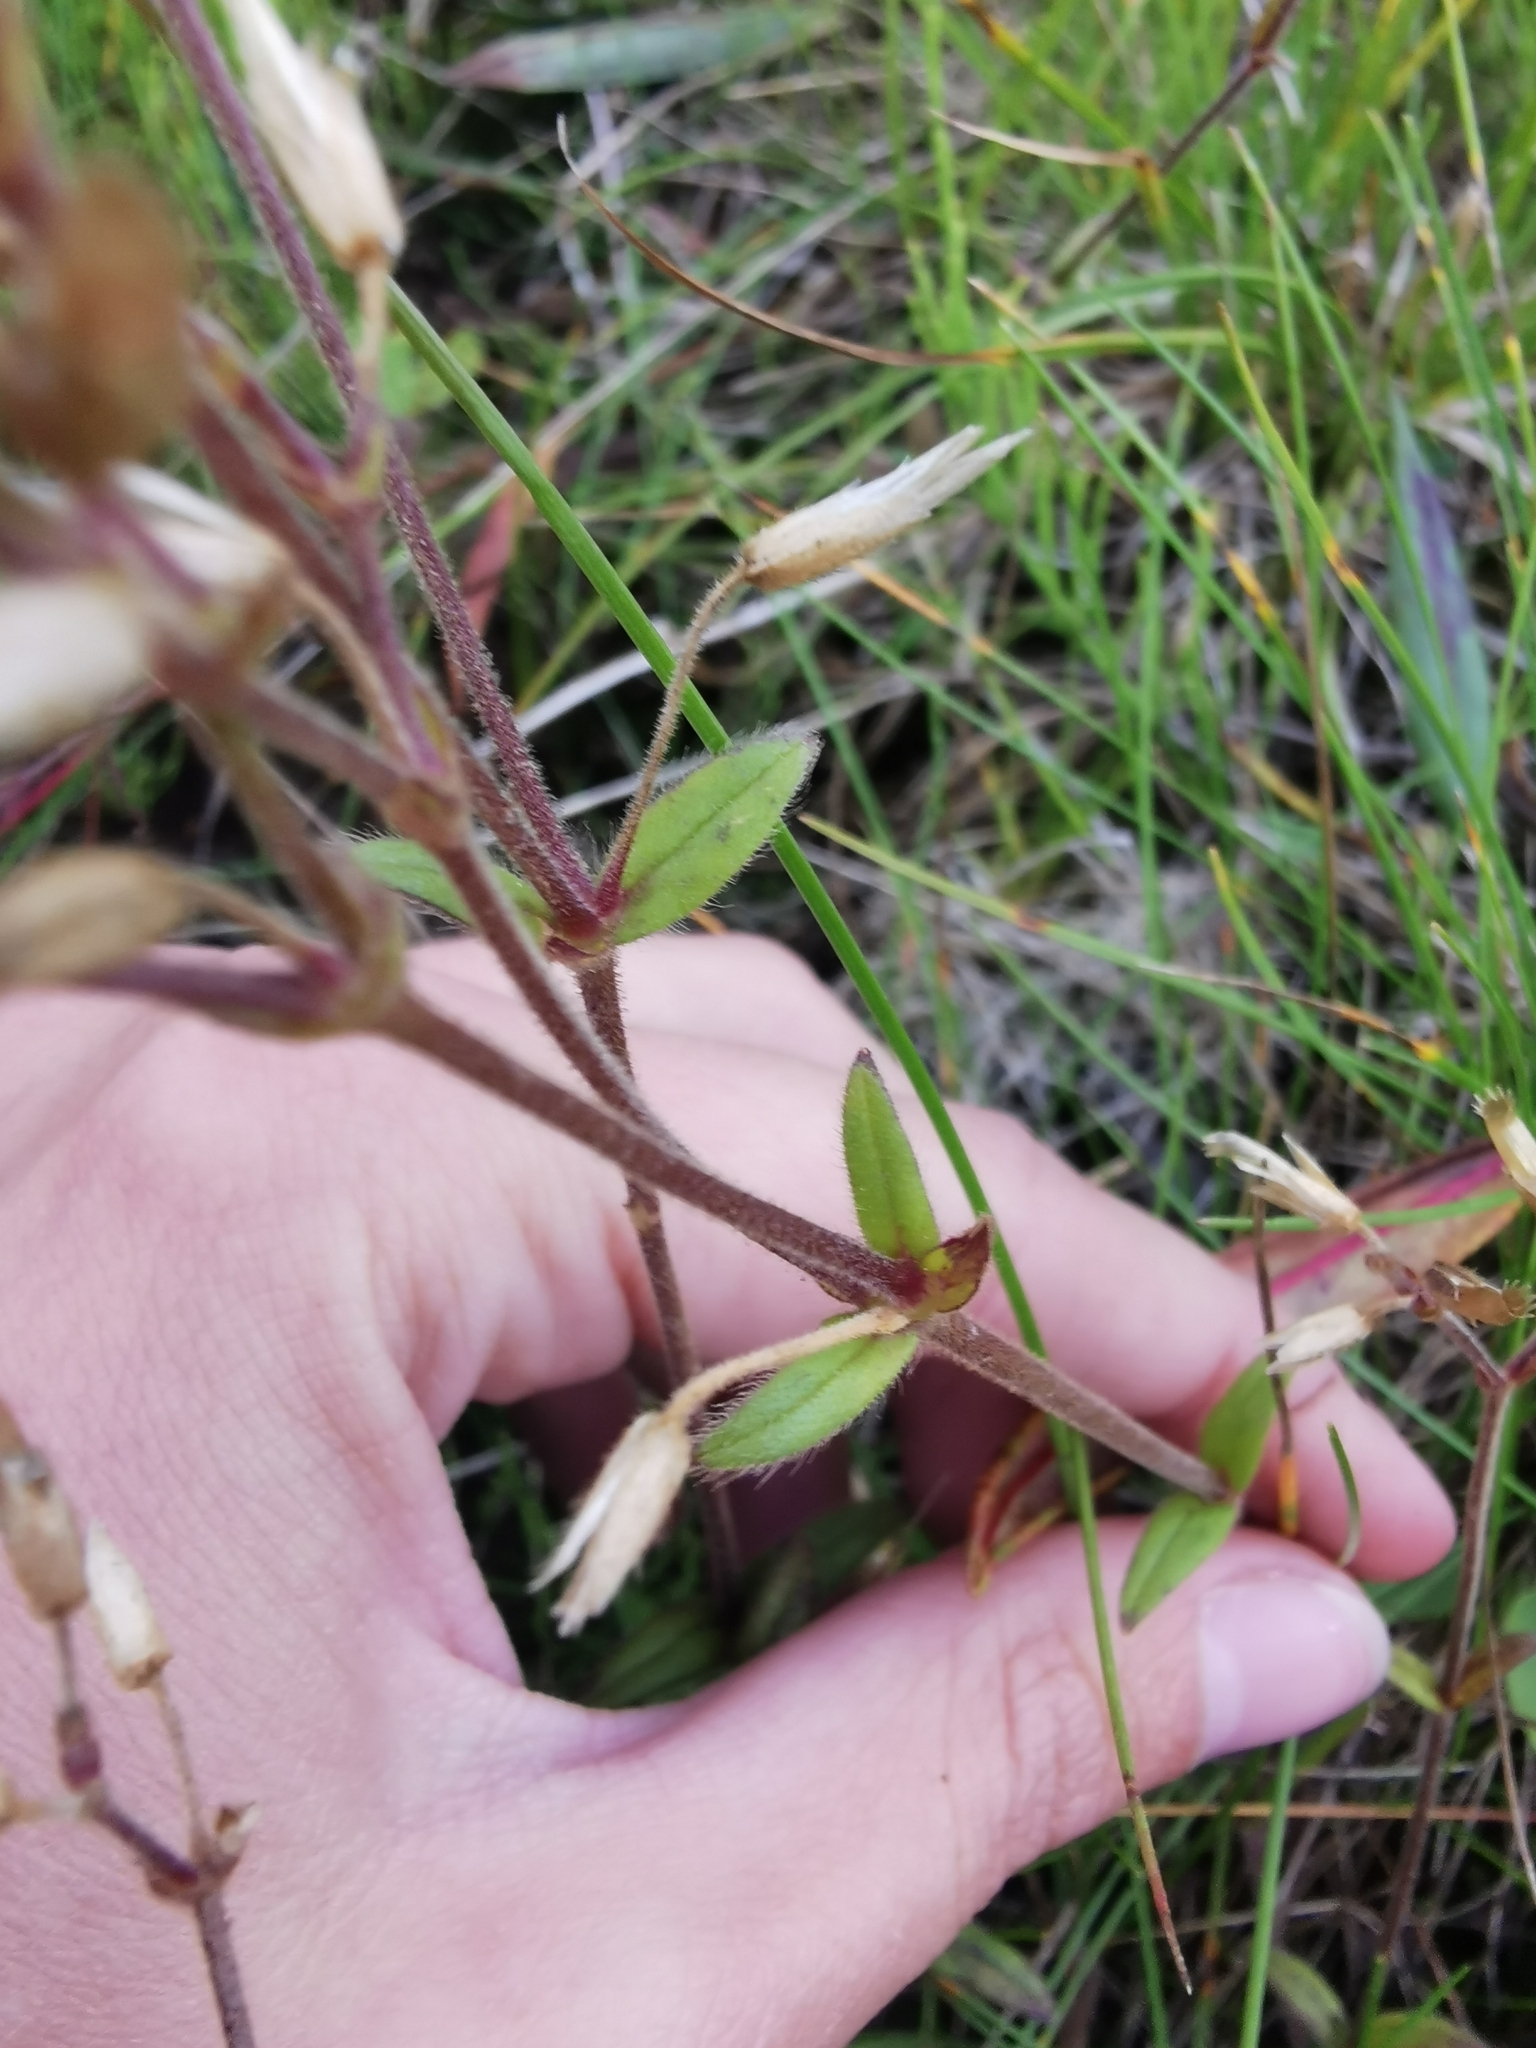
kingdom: Plantae
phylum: Tracheophyta
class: Magnoliopsida
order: Caryophyllales
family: Caryophyllaceae
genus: Cerastium
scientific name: Cerastium holosteoides
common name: Big chickweed
